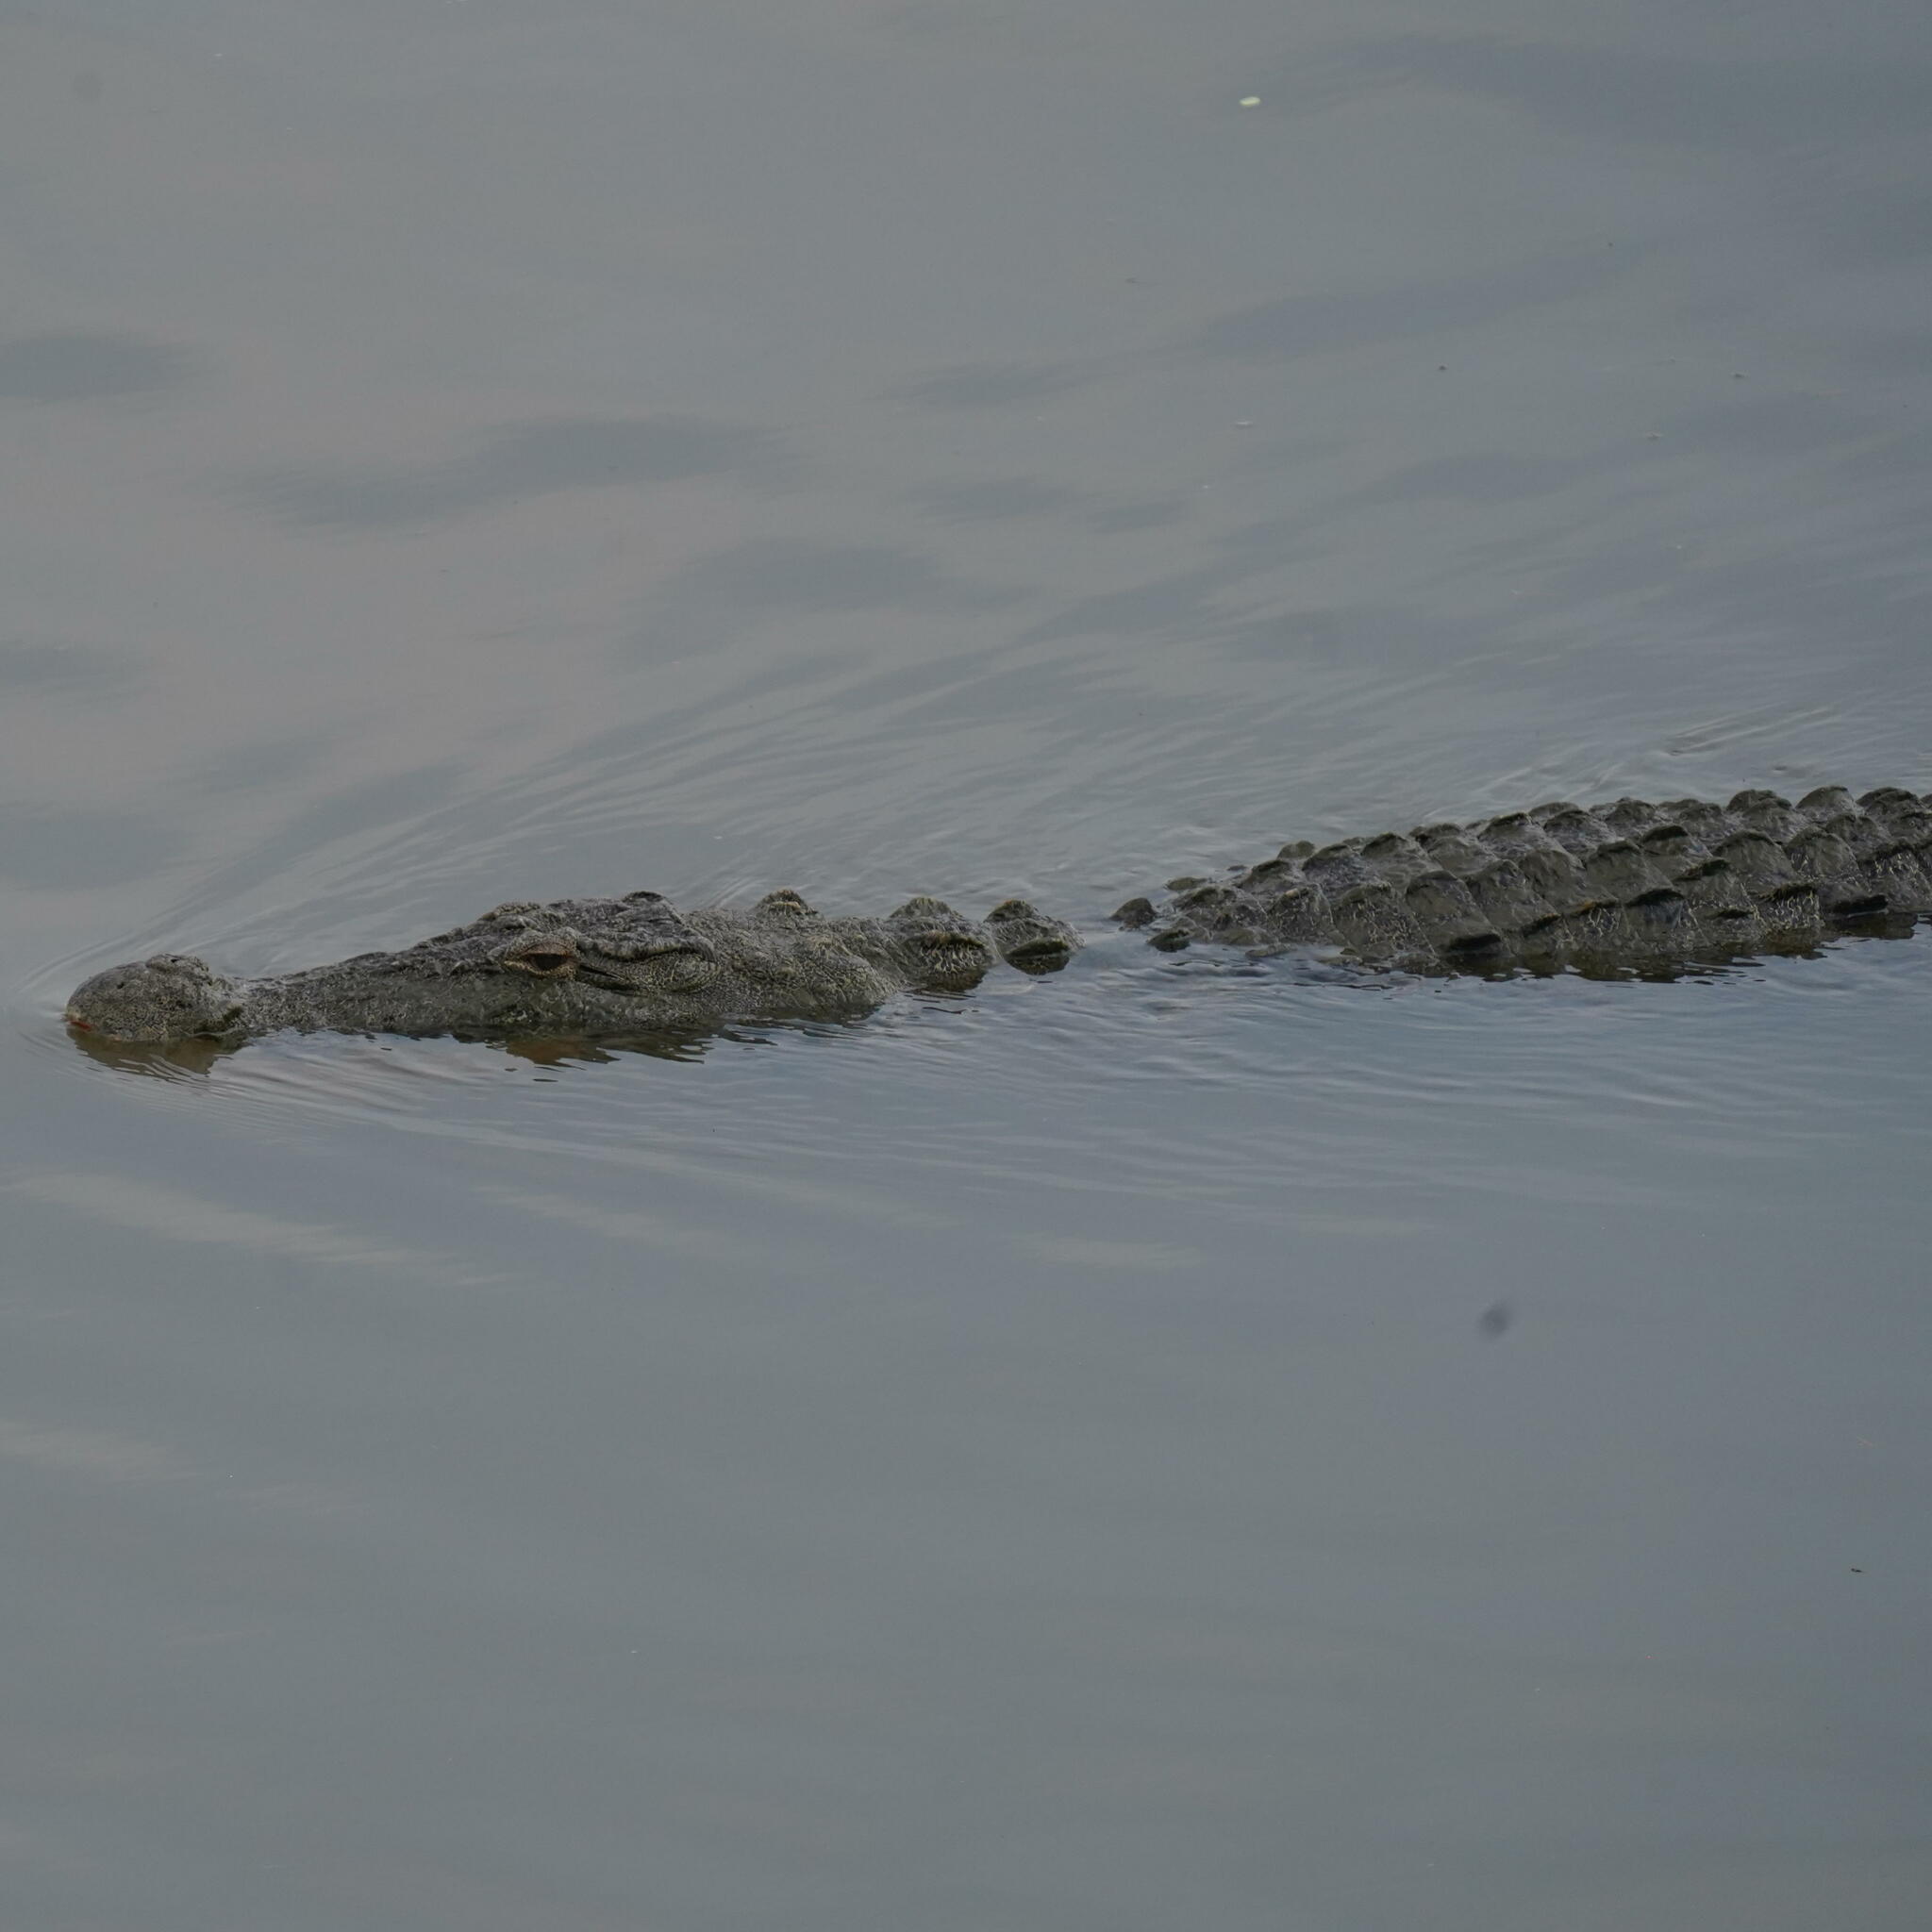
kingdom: Animalia
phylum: Chordata
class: Crocodylia
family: Crocodylidae
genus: Crocodylus
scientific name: Crocodylus palustris
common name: Mugger crocodile
